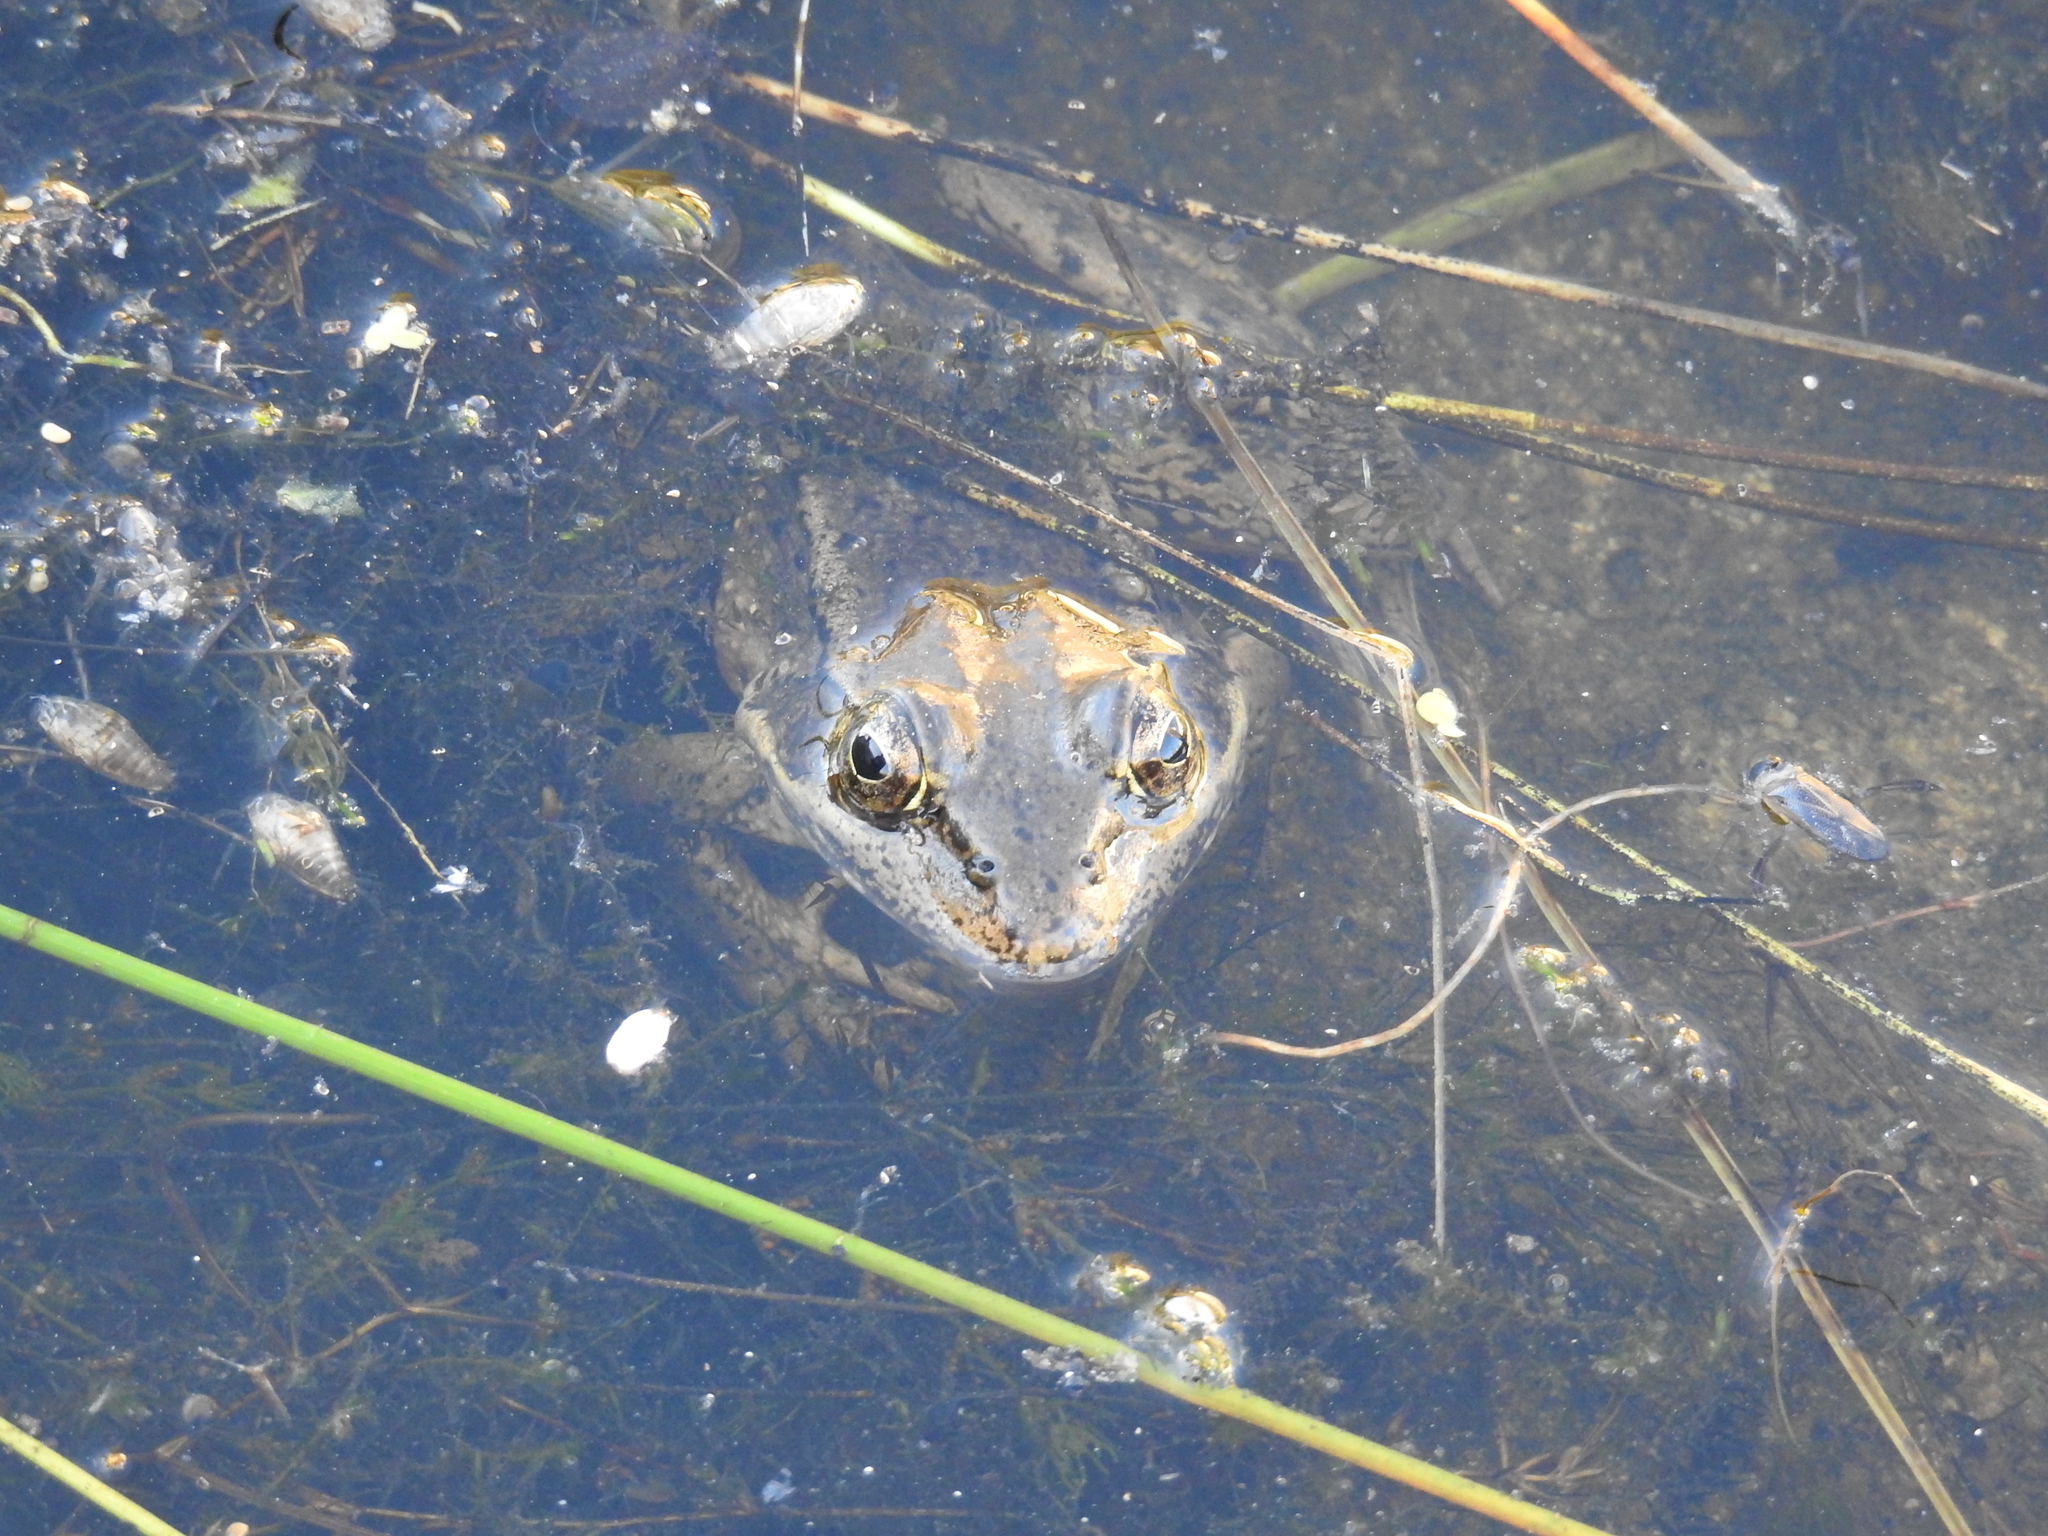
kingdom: Animalia
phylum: Chordata
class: Amphibia
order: Anura
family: Ranidae
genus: Rana
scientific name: Rana draytonii
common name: California red-legged frog
